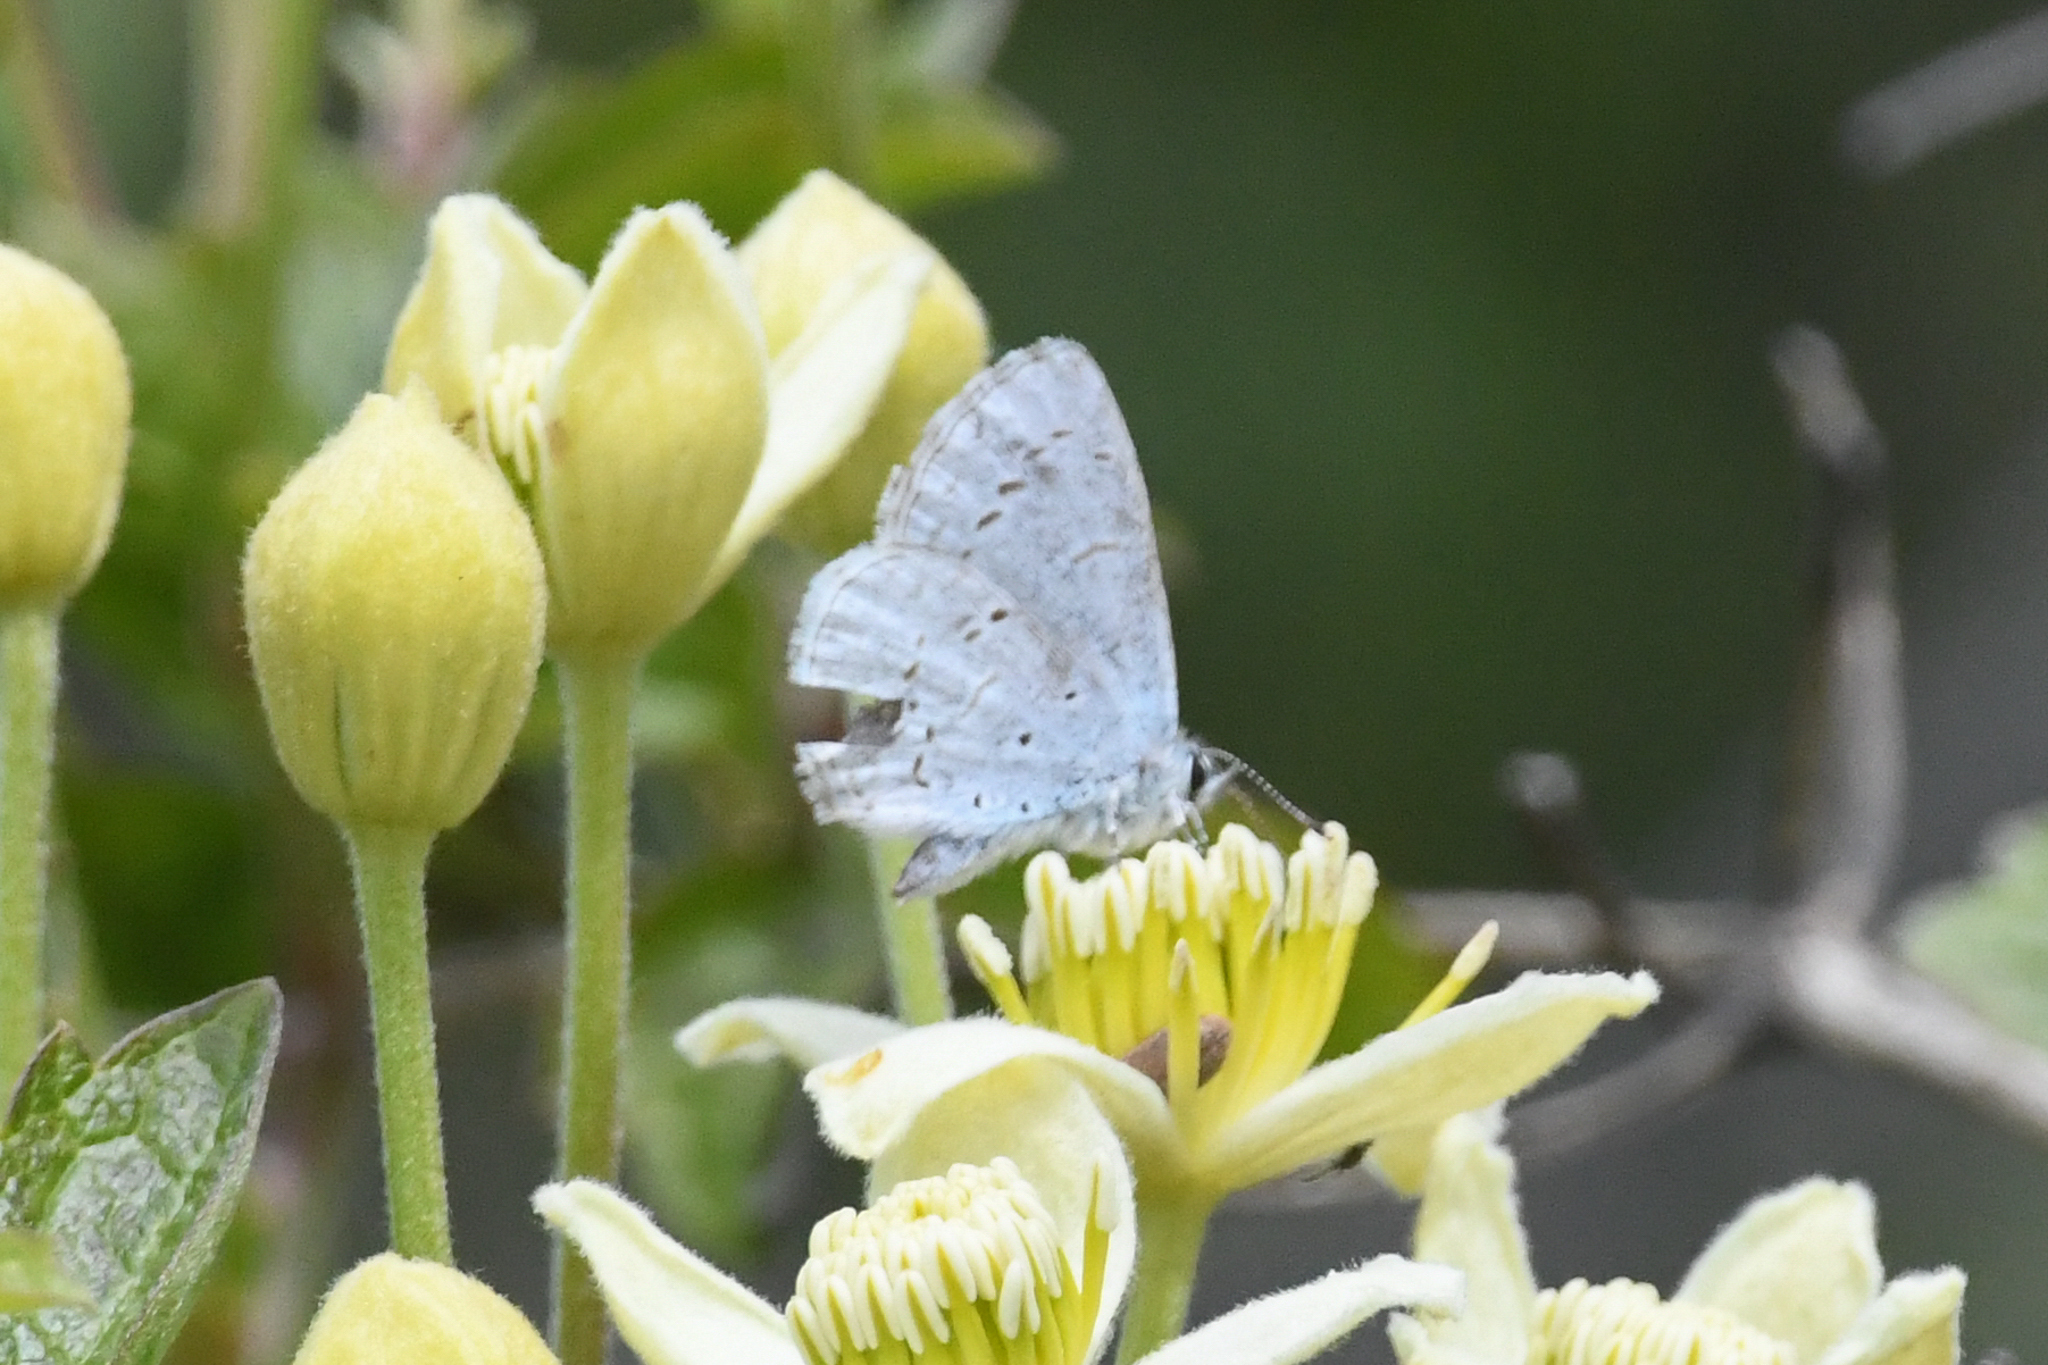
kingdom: Animalia
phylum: Arthropoda
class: Insecta
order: Lepidoptera
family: Lycaenidae
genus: Celastrina
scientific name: Celastrina ladon
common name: Spring azure
